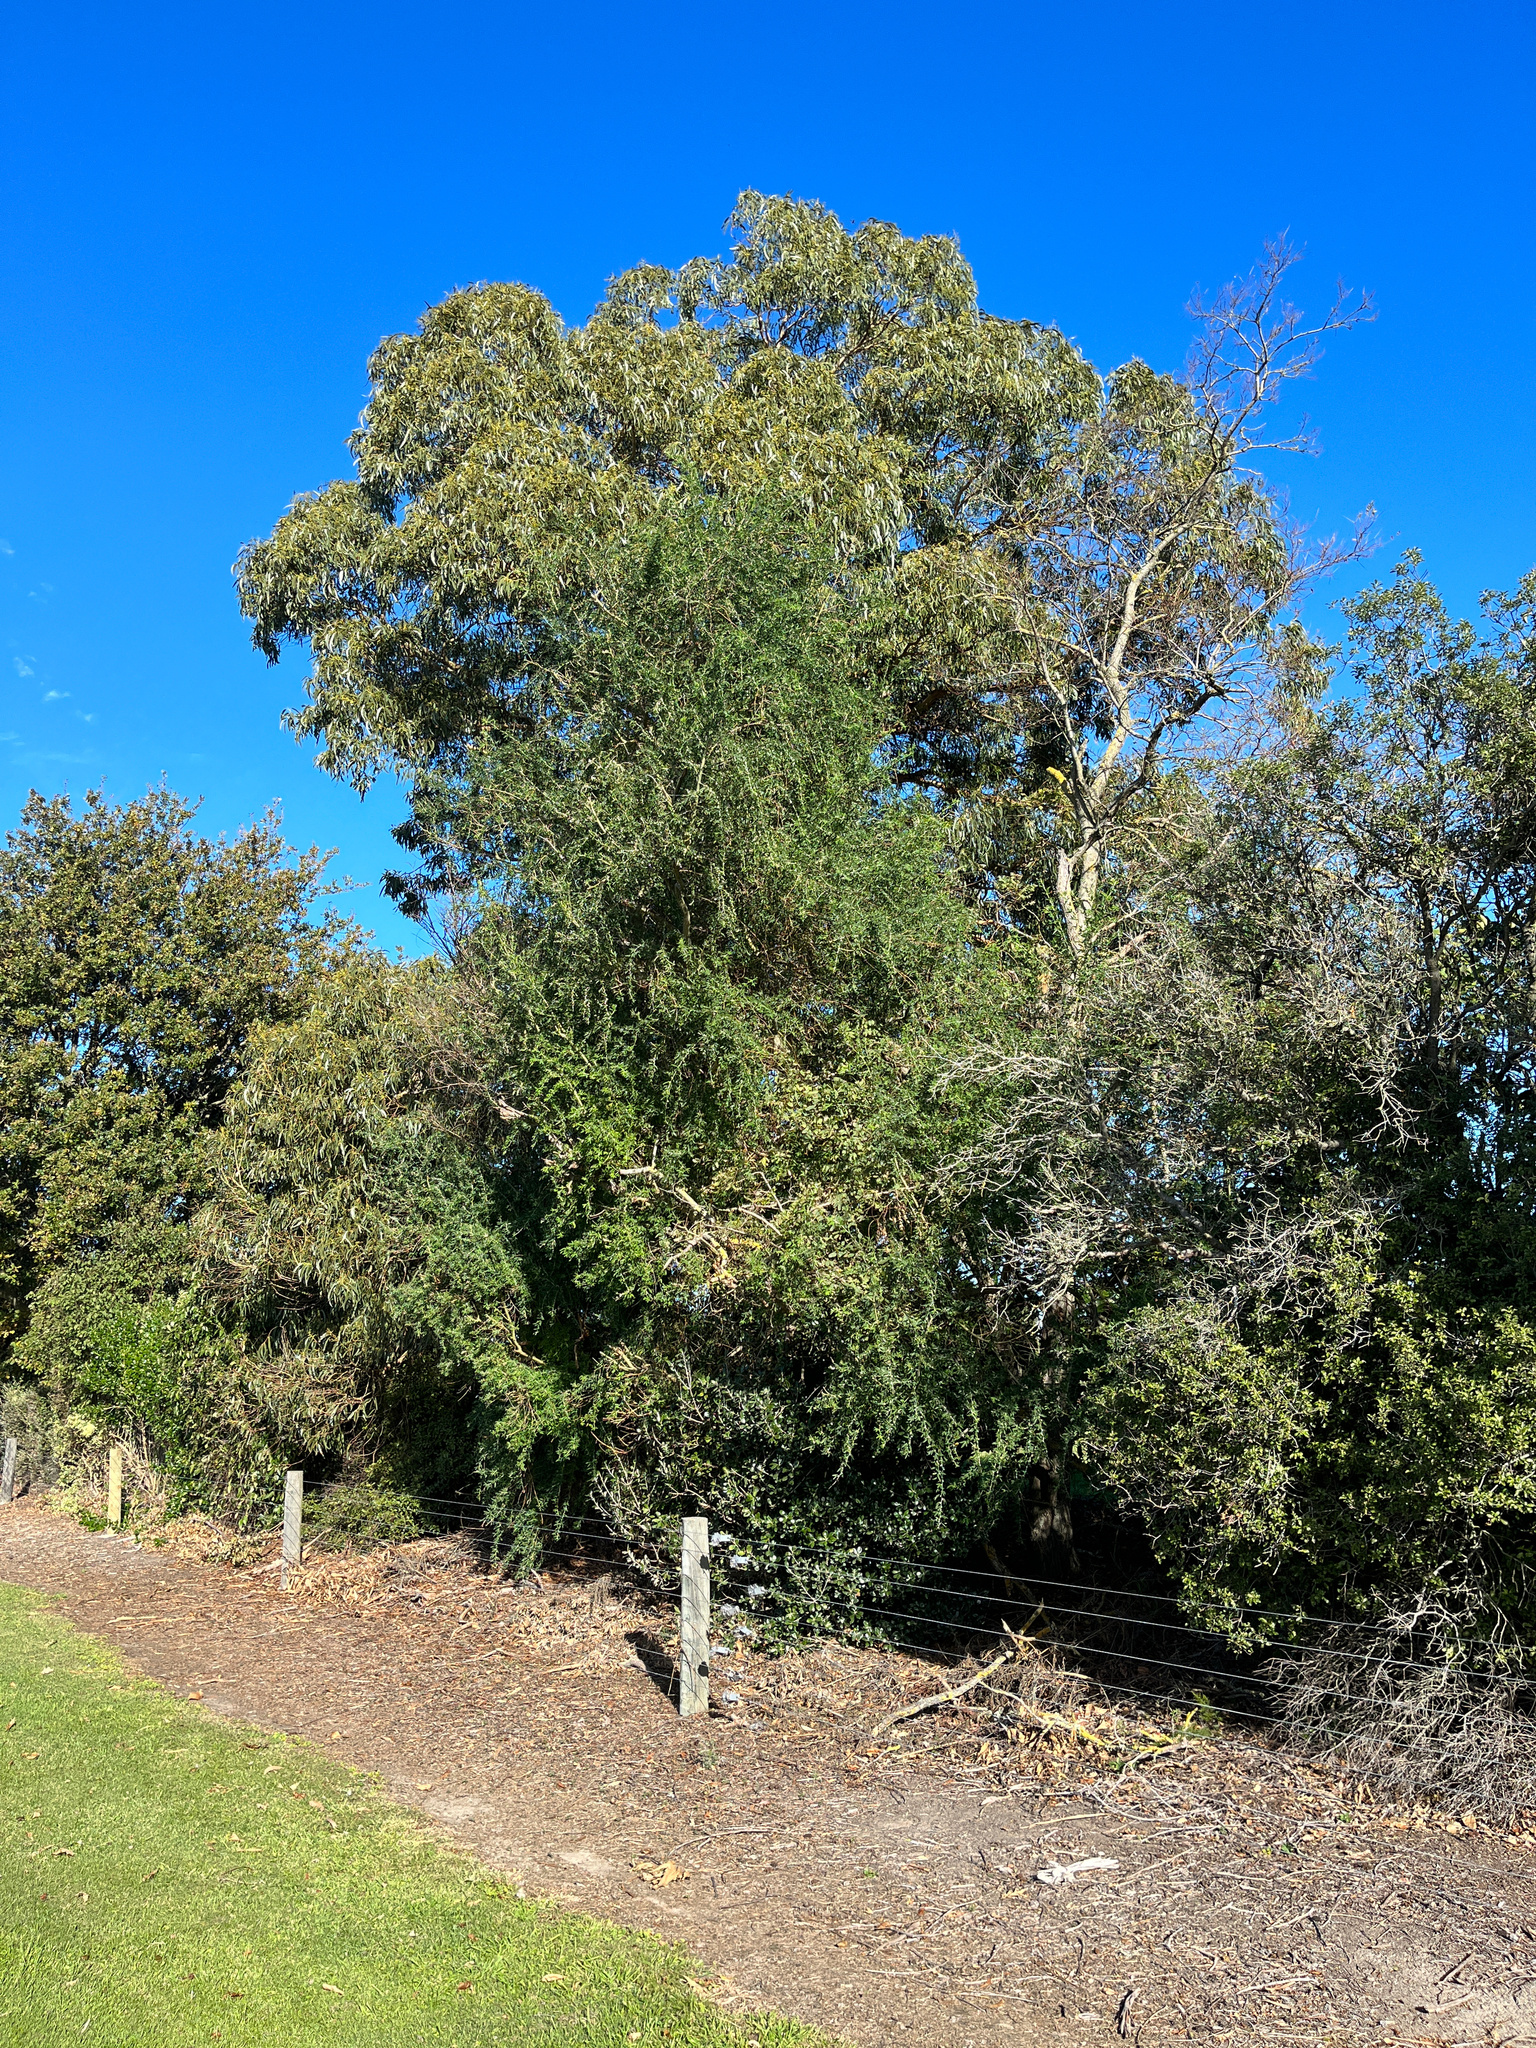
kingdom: Plantae
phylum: Tracheophyta
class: Magnoliopsida
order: Fabales
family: Fabaceae
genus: Chamaecytisus
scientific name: Chamaecytisus prolifer
